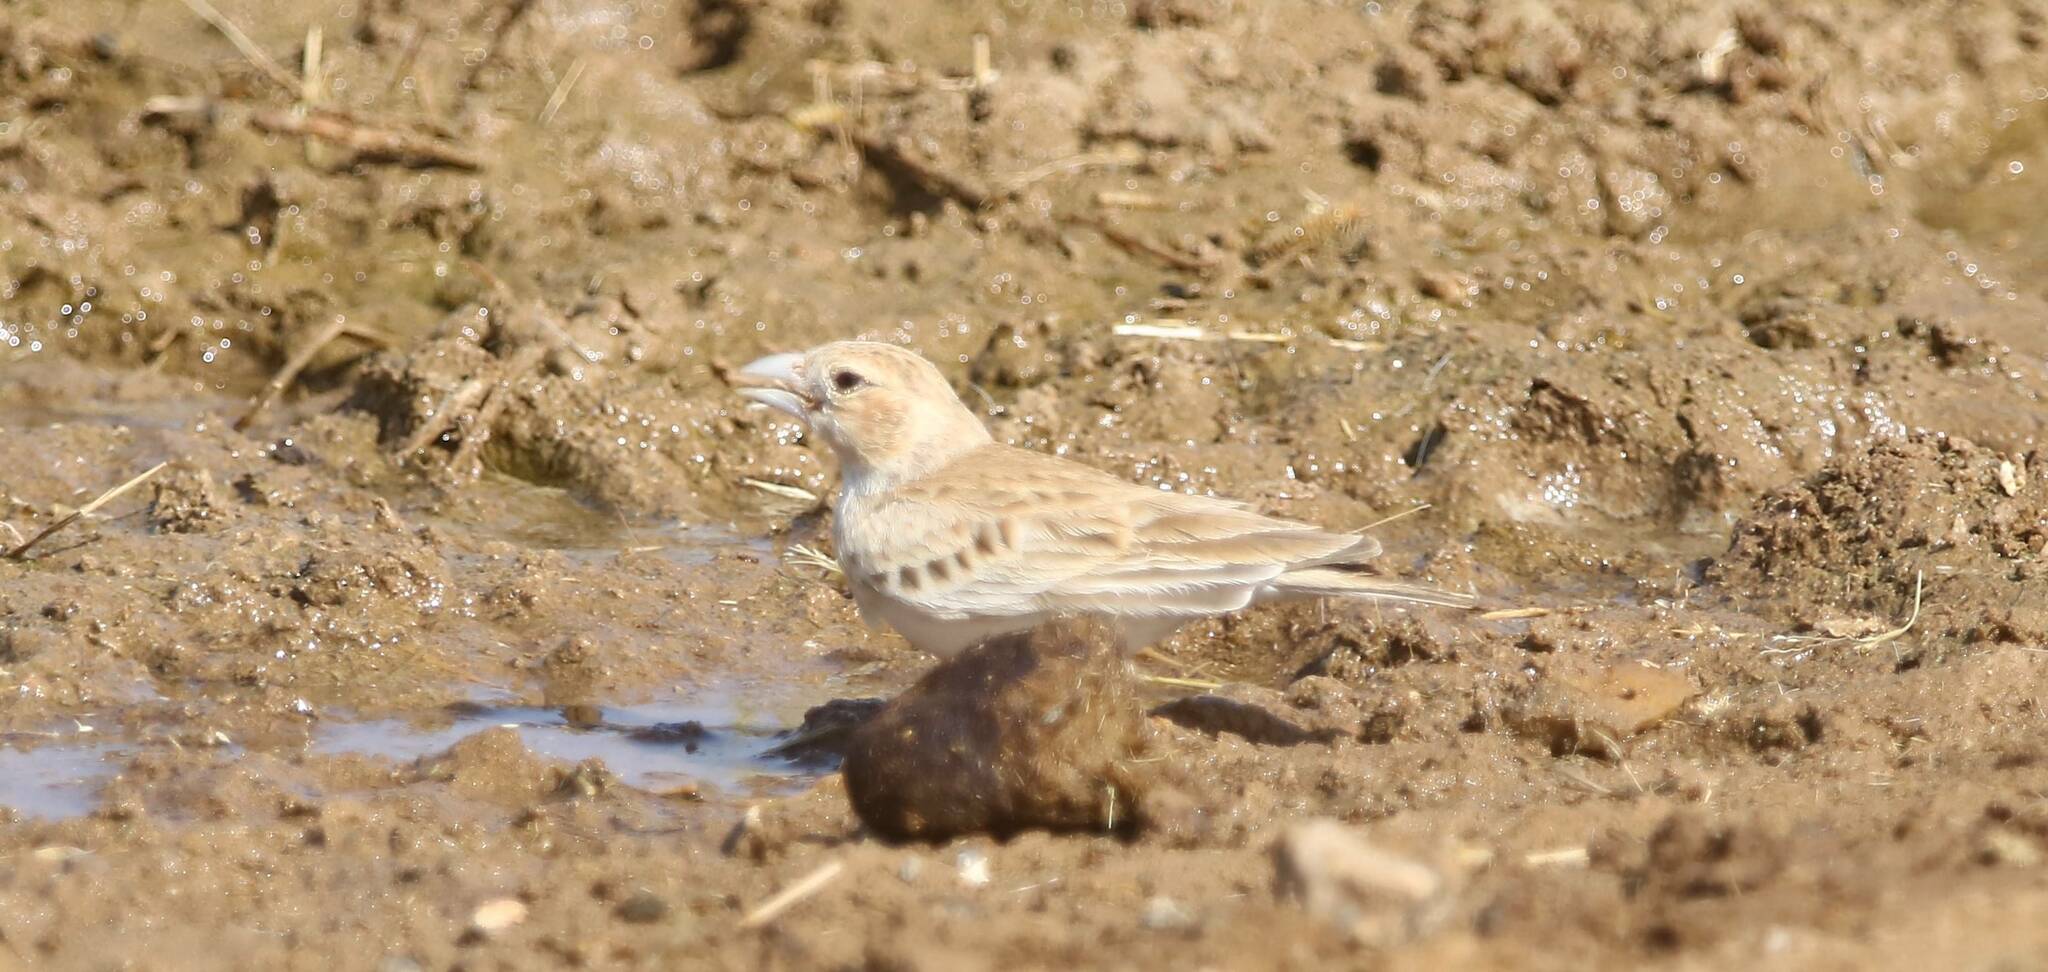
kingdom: Animalia
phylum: Chordata
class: Aves
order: Passeriformes
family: Alaudidae
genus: Eremopterix
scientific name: Eremopterix nigriceps
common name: Black-crowned sparrow-lark
